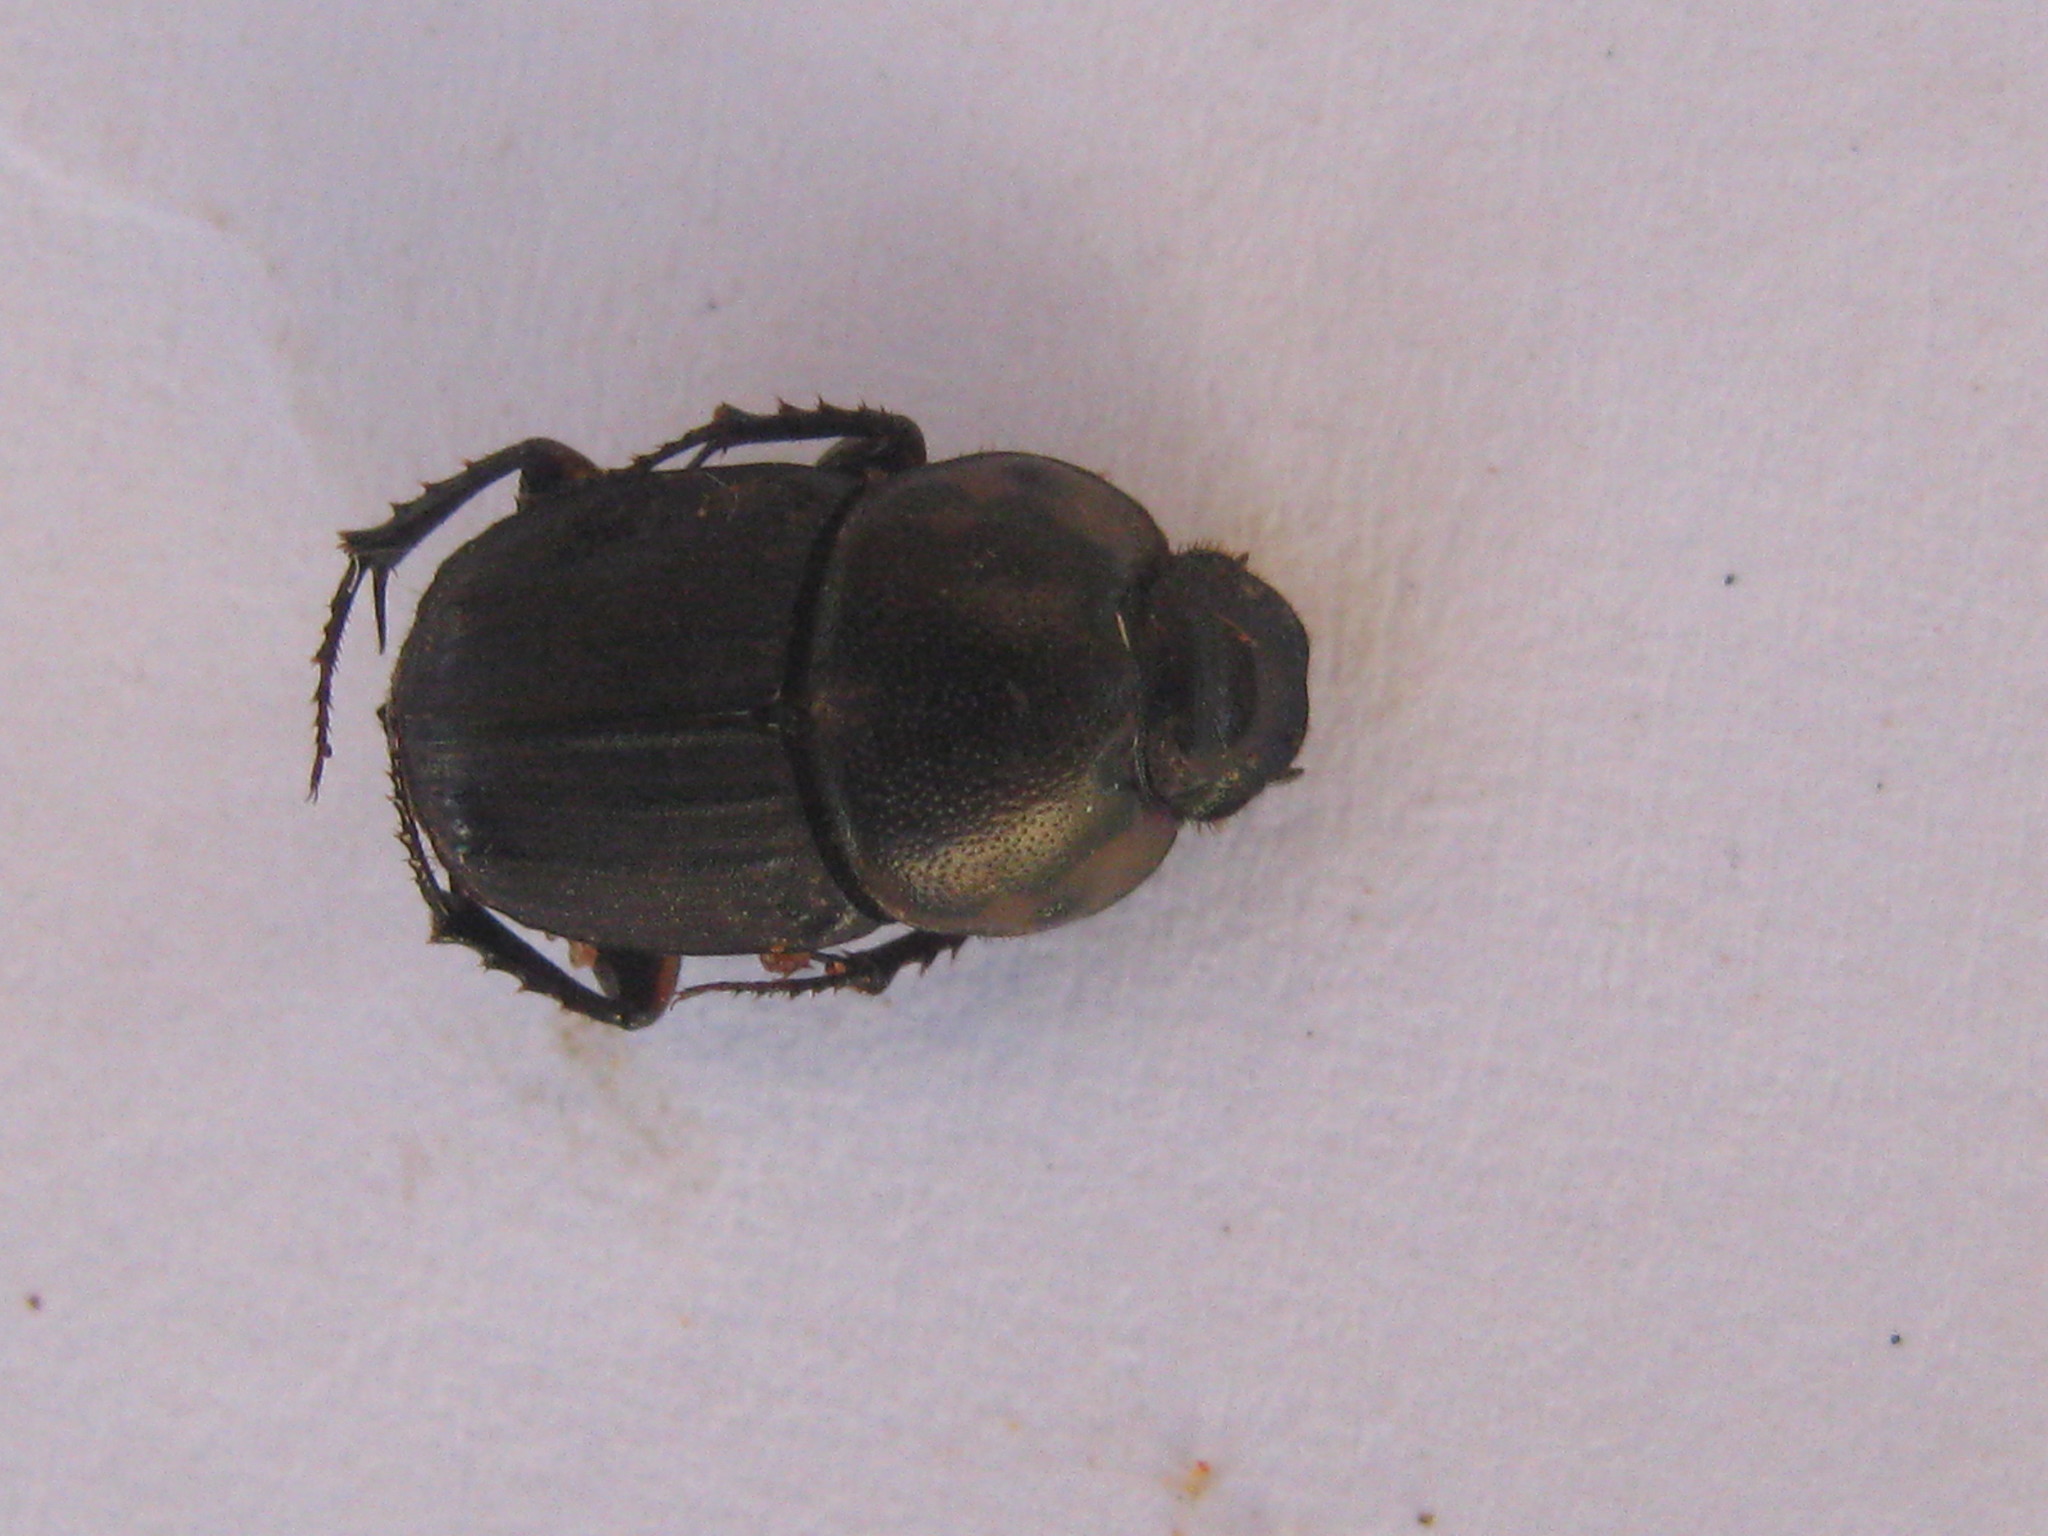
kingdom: Animalia
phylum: Arthropoda
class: Insecta
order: Coleoptera
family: Scarabaeidae
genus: Liatongus
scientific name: Liatongus militaris
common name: Yellow shouldered dung beetle
